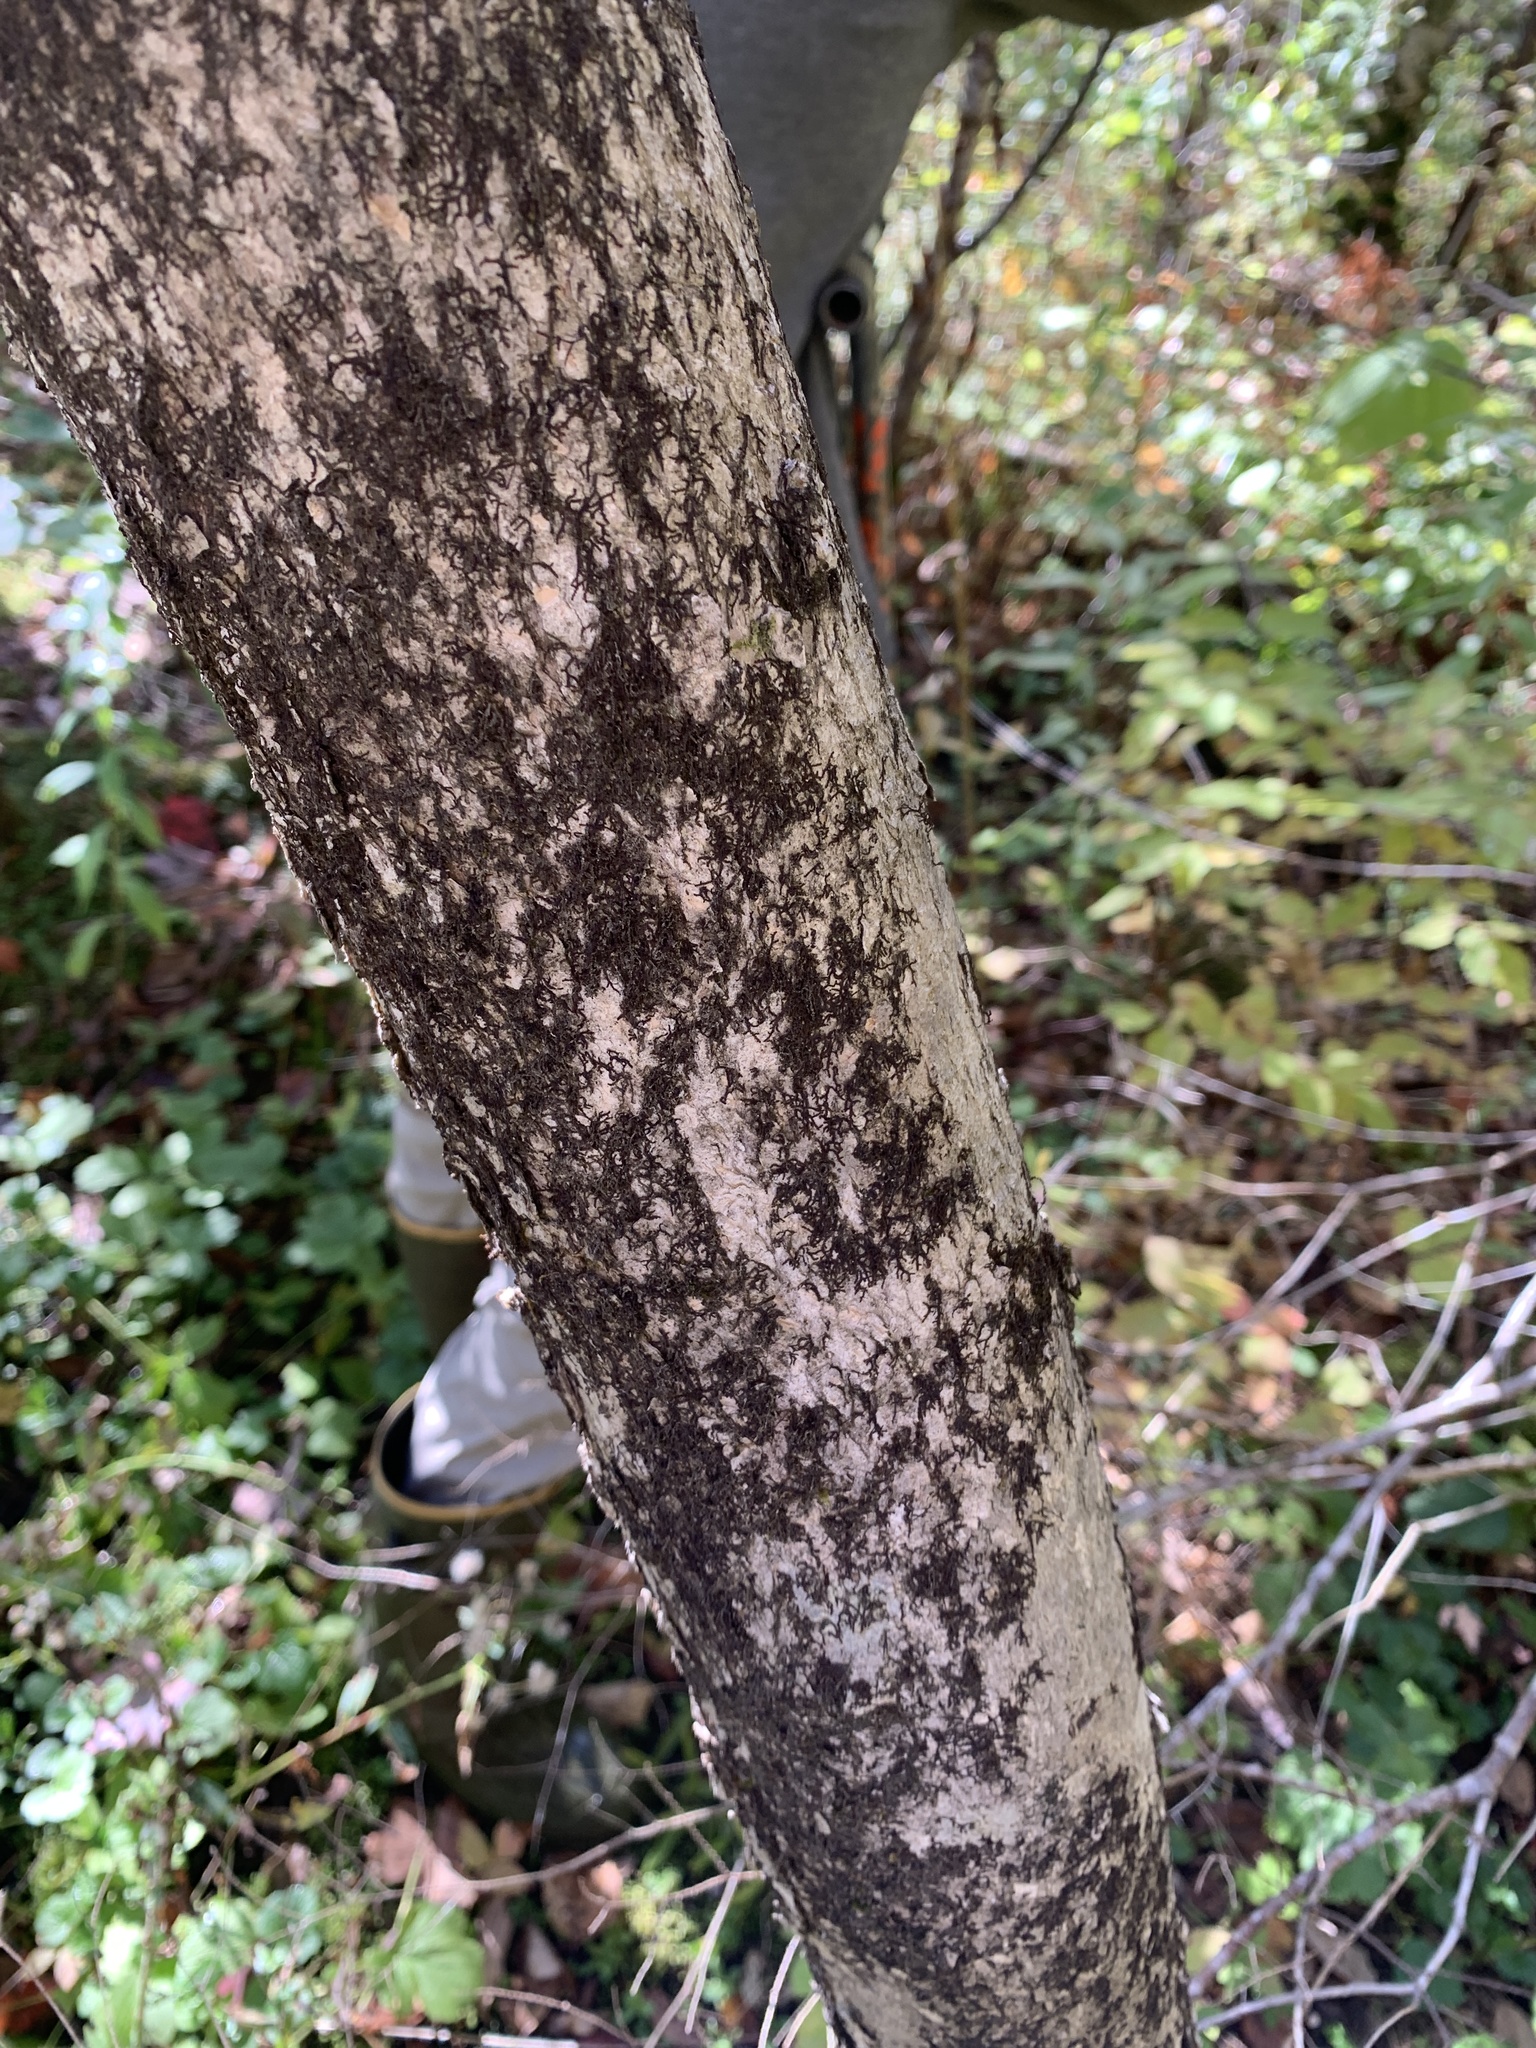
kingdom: Plantae
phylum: Tracheophyta
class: Magnoliopsida
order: Lamiales
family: Oleaceae
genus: Fraxinus
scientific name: Fraxinus nigra
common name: Black ash
